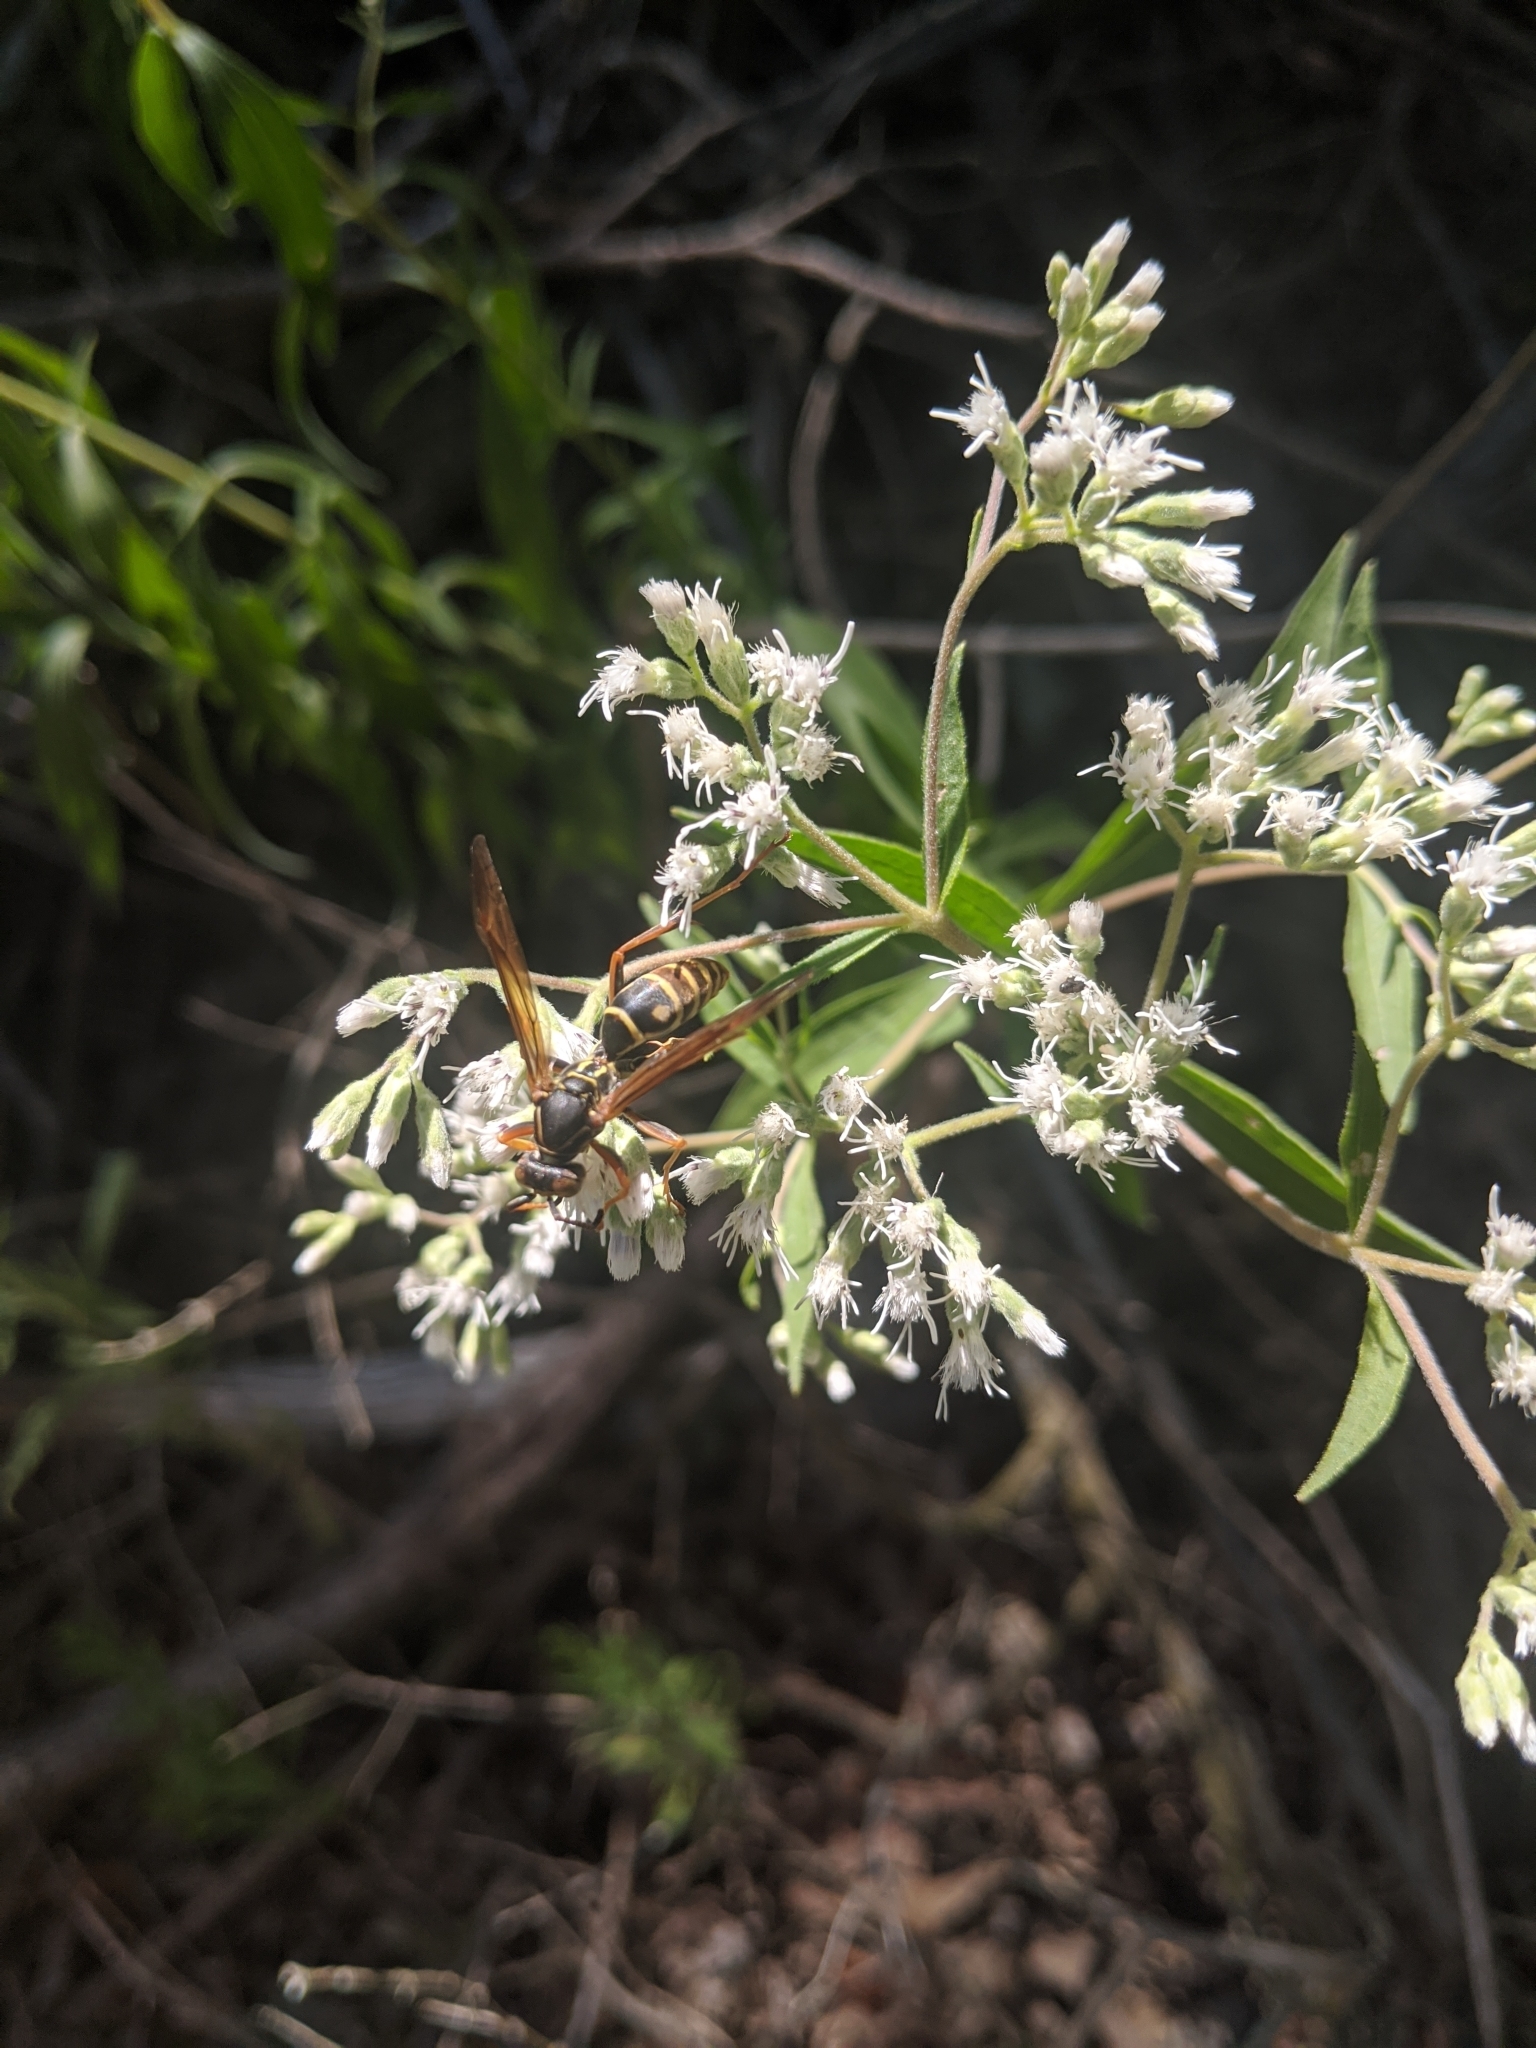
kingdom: Animalia
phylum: Arthropoda
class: Insecta
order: Hymenoptera
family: Eumenidae
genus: Polistes
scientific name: Polistes fuscatus
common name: Dark paper wasp
